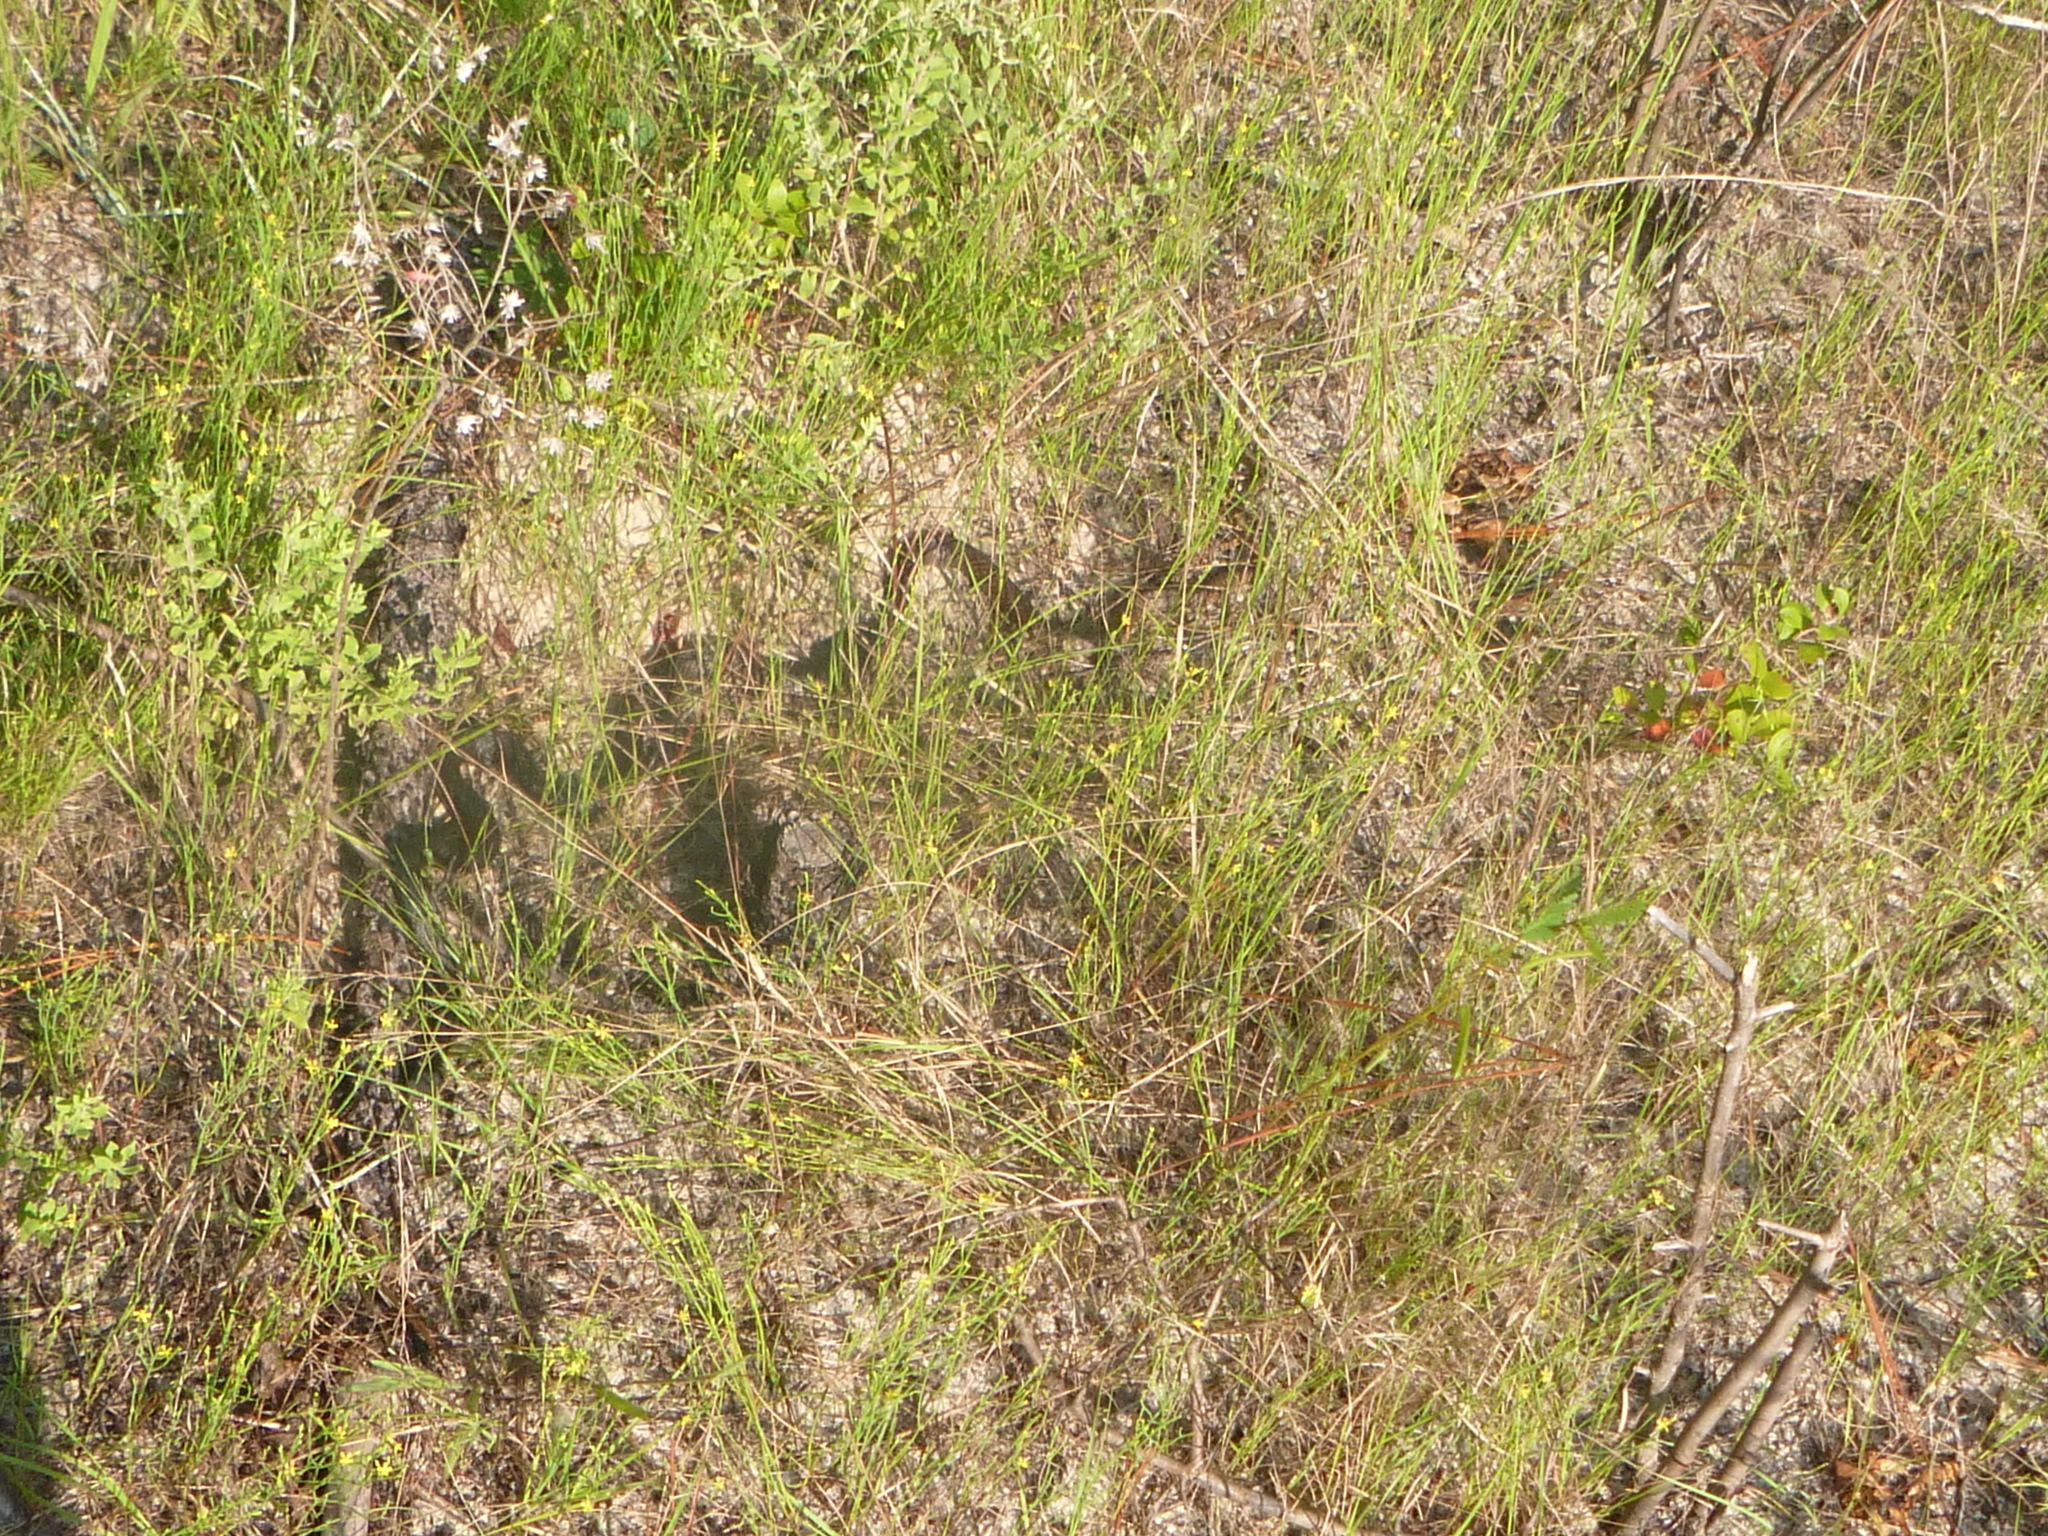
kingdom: Animalia
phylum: Chordata
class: Squamata
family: Colubridae
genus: Masticophis
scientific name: Masticophis flagellum
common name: Coachwhip
